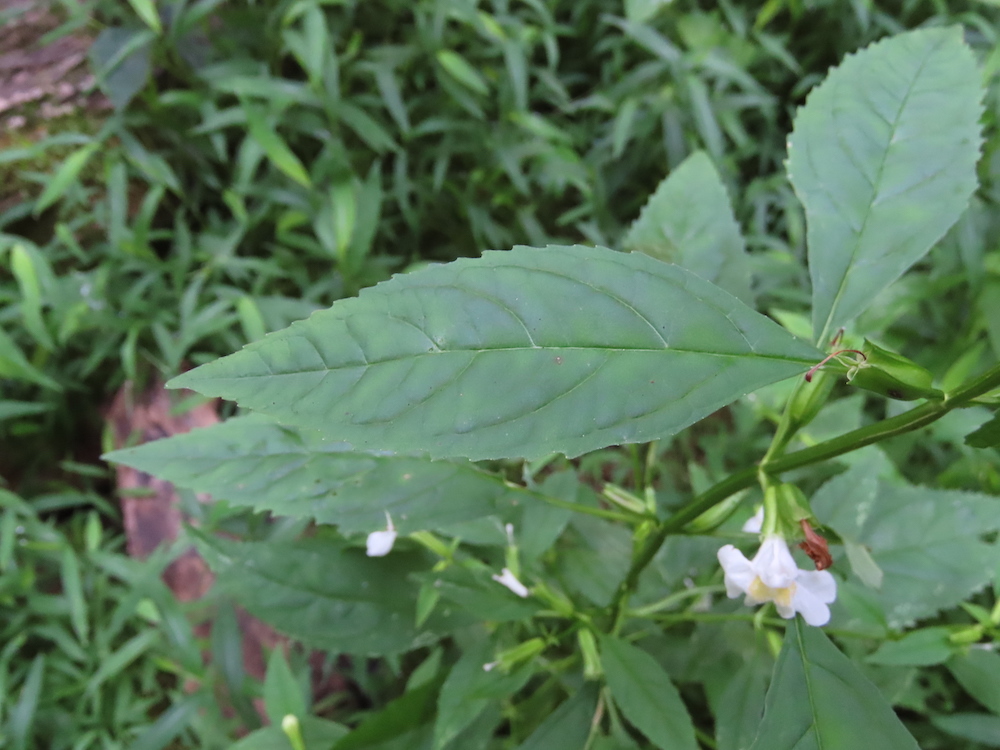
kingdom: Plantae
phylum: Tracheophyta
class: Magnoliopsida
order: Lamiales
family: Phrymaceae
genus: Mimulus
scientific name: Mimulus alatus
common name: Sharp-wing monkey-flower
